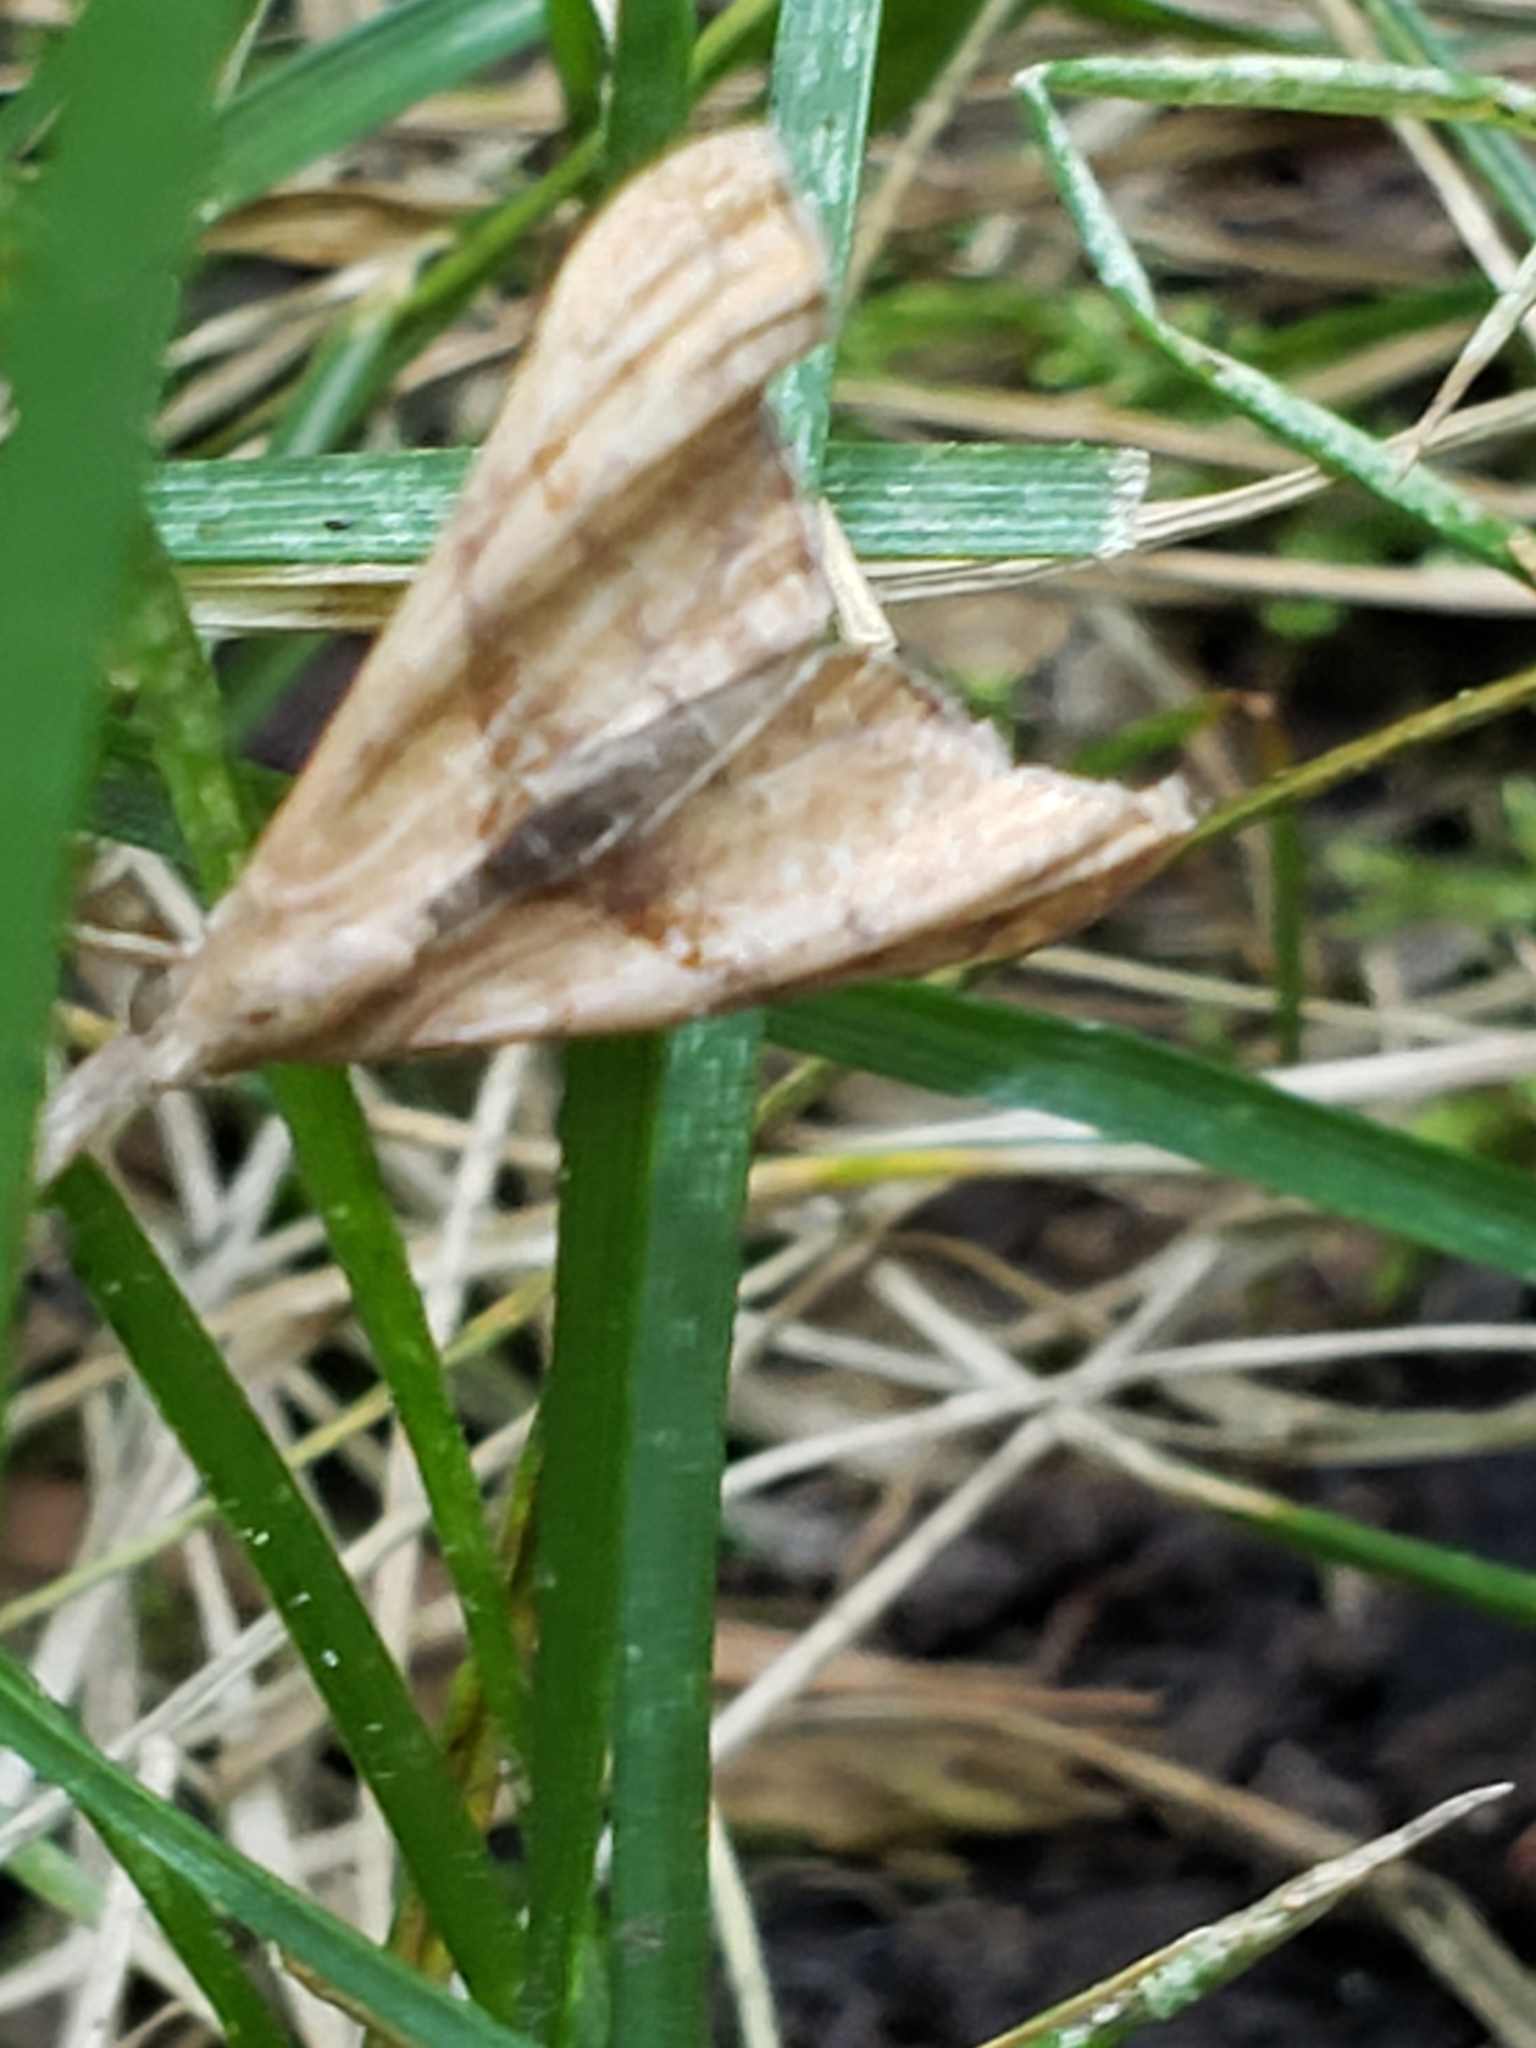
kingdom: Animalia
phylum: Arthropoda
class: Insecta
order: Lepidoptera
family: Erebidae
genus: Palthis
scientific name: Palthis angulalis
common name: Dark-spotted palthis moth
